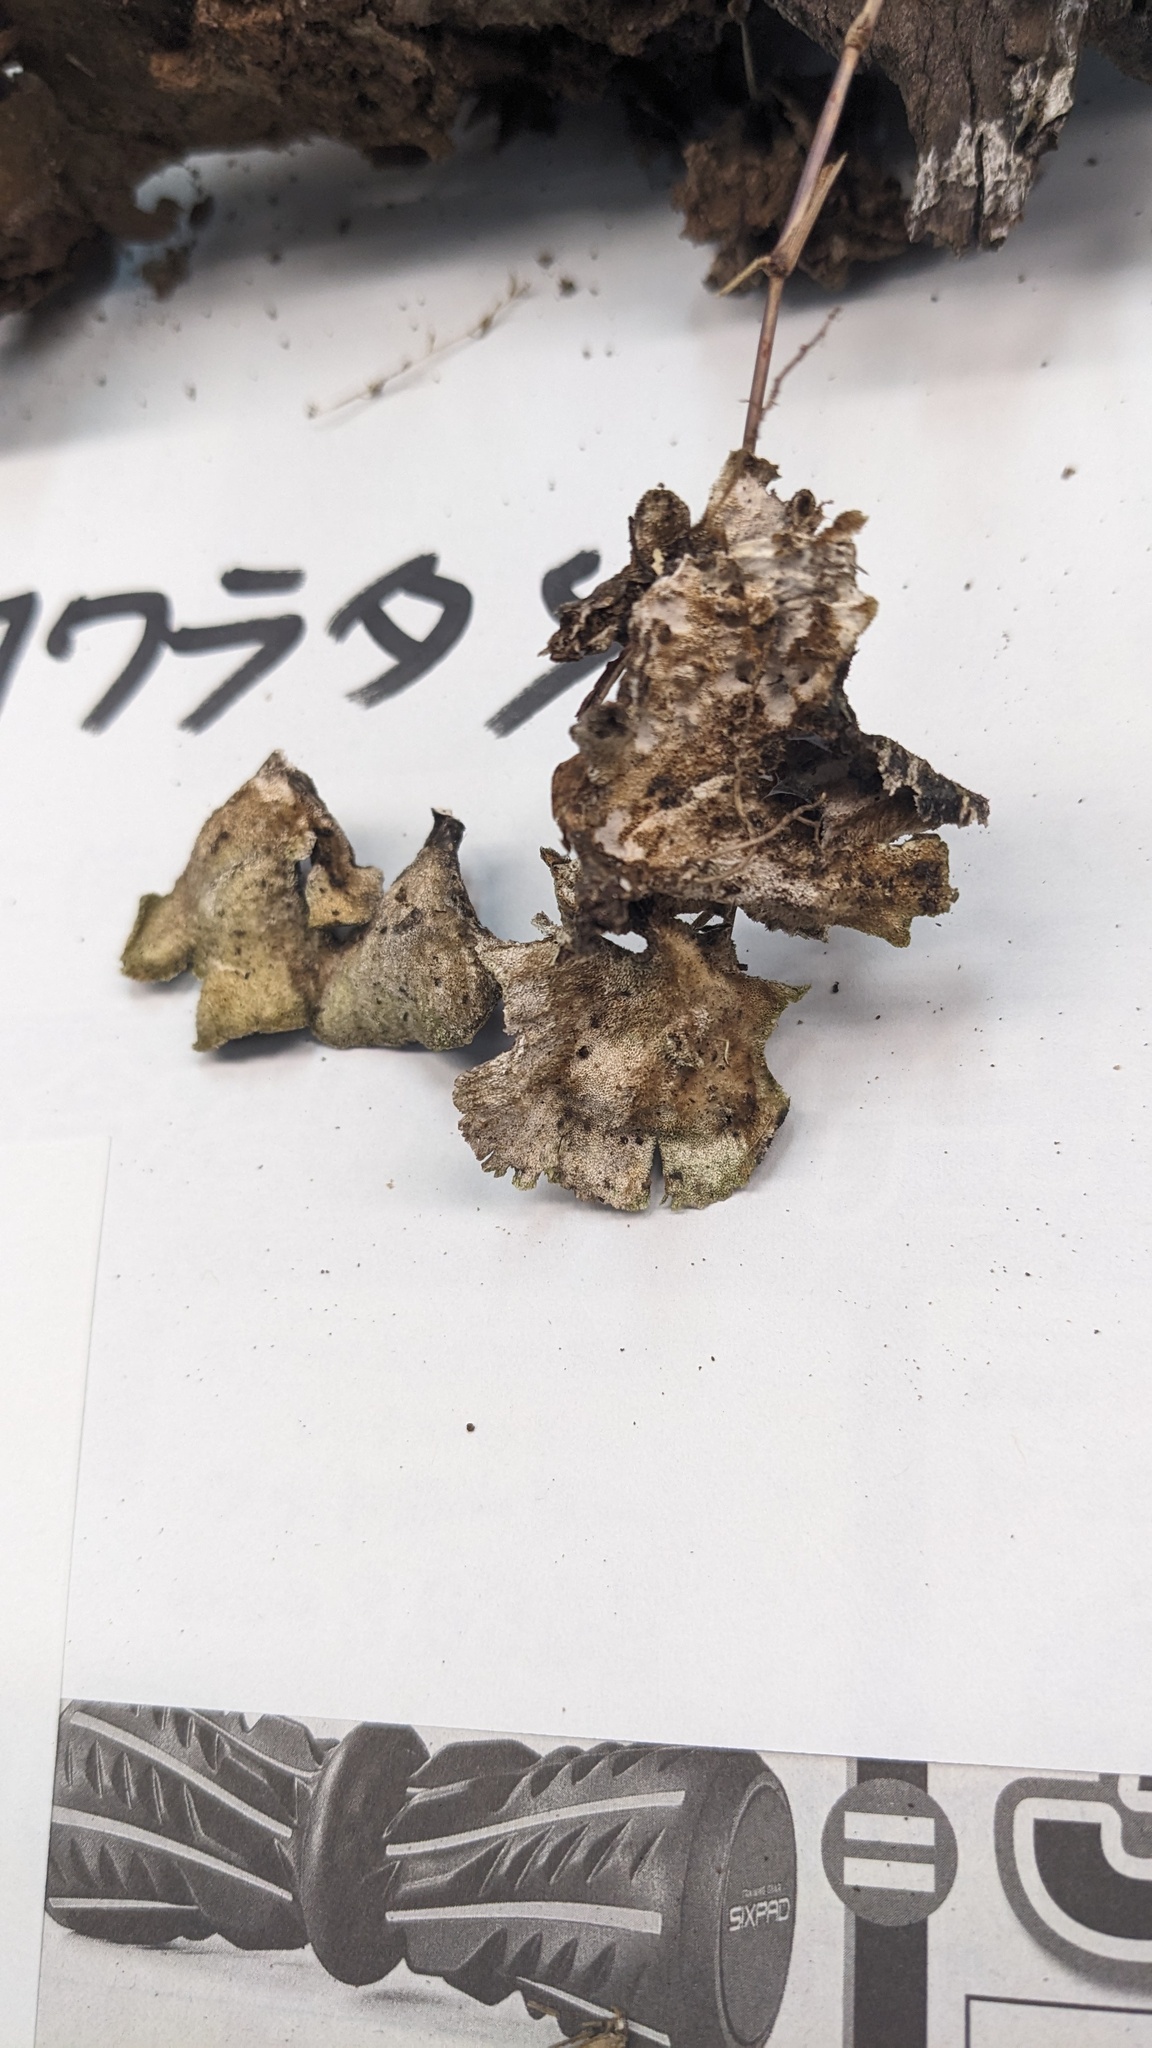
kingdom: Fungi
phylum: Basidiomycota
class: Agaricomycetes
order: Polyporales
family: Polyporaceae
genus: Trametes
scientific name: Trametes versicolor
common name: Turkeytail
